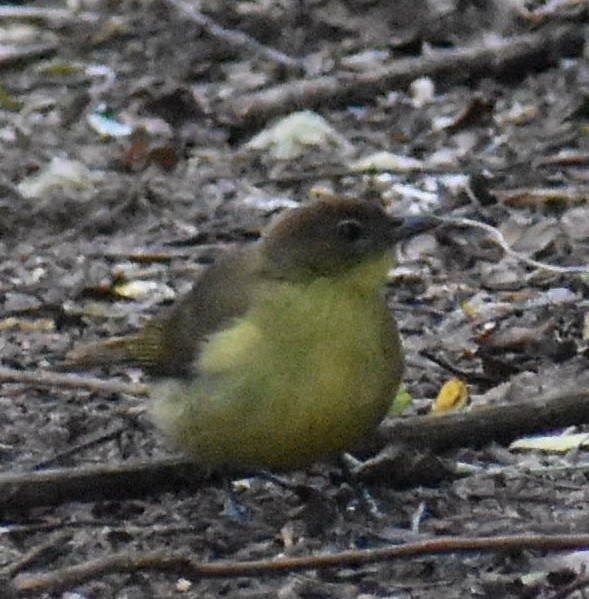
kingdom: Animalia
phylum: Chordata
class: Aves
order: Passeriformes
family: Pycnonotidae
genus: Chlorocichla
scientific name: Chlorocichla flaviventris
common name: Yellow-bellied greenbul
